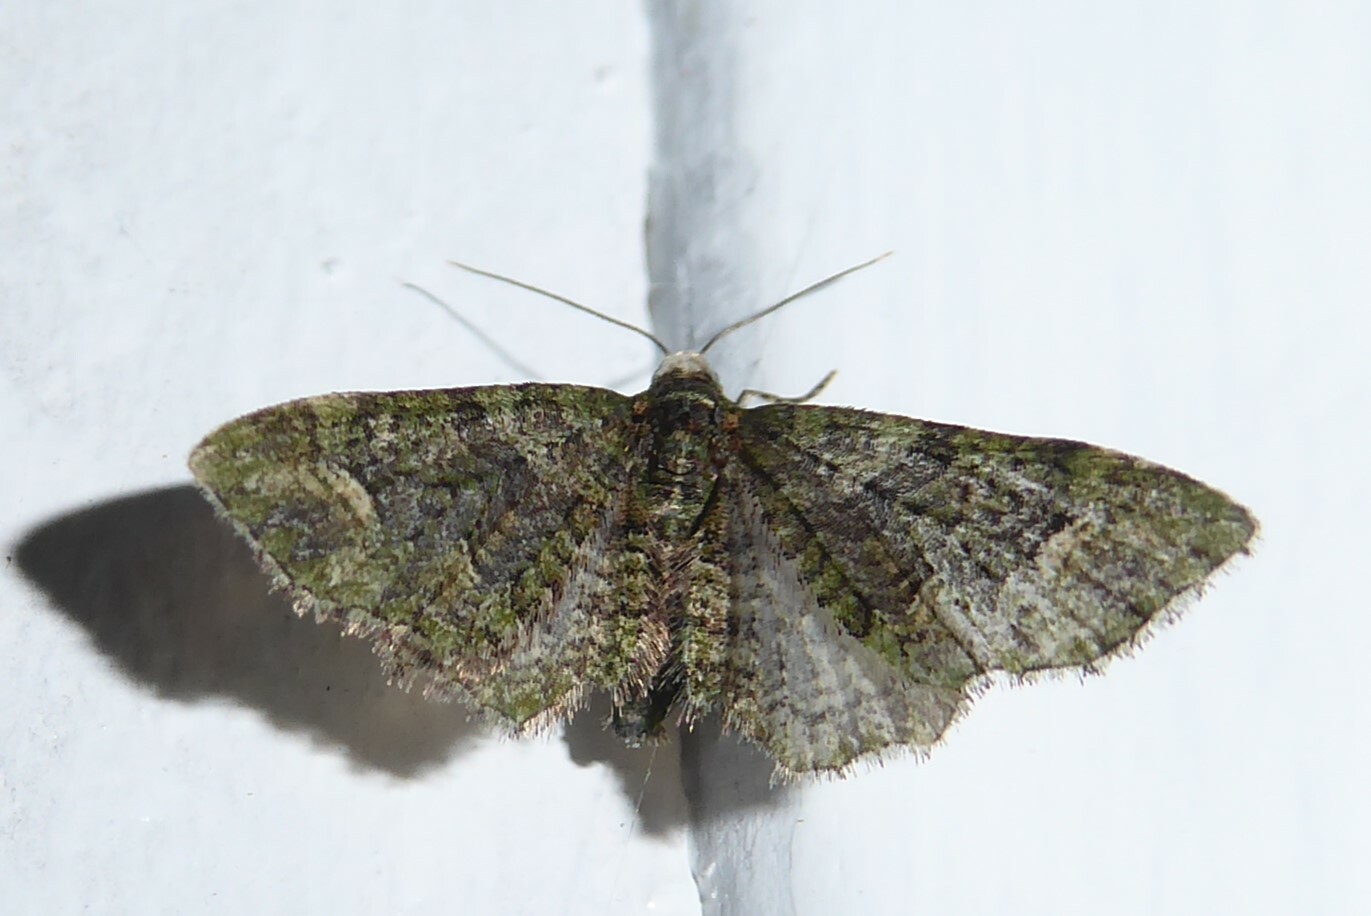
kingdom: Animalia
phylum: Arthropoda
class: Insecta
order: Lepidoptera
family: Geometridae
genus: Idaea
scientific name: Idaea mutanda
